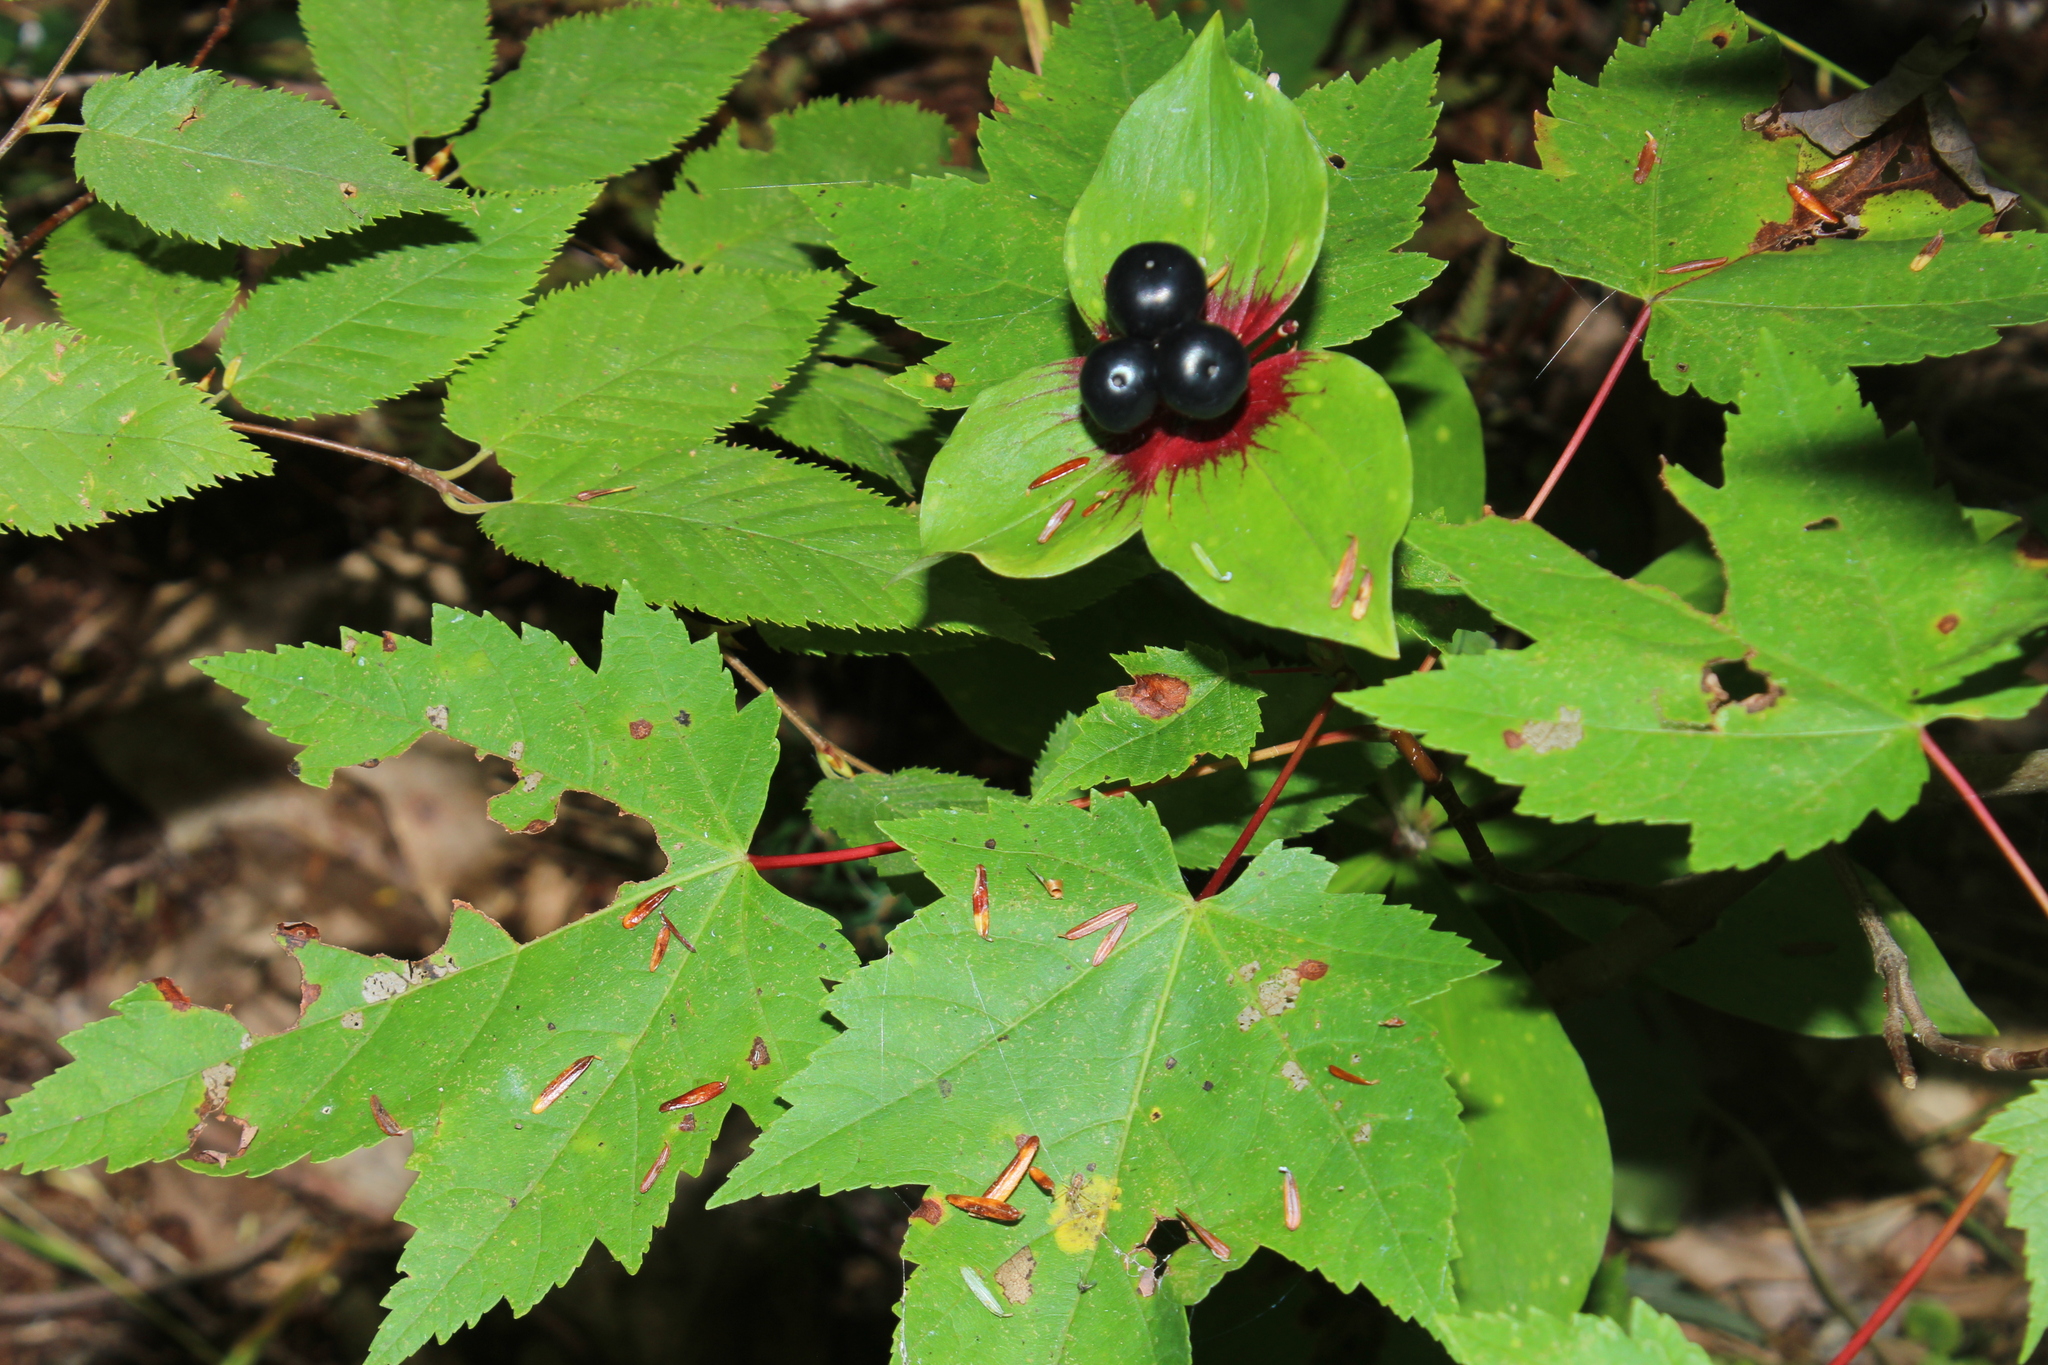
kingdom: Plantae
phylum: Tracheophyta
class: Liliopsida
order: Liliales
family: Liliaceae
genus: Medeola
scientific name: Medeola virginiana
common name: Indian cucumber-root
